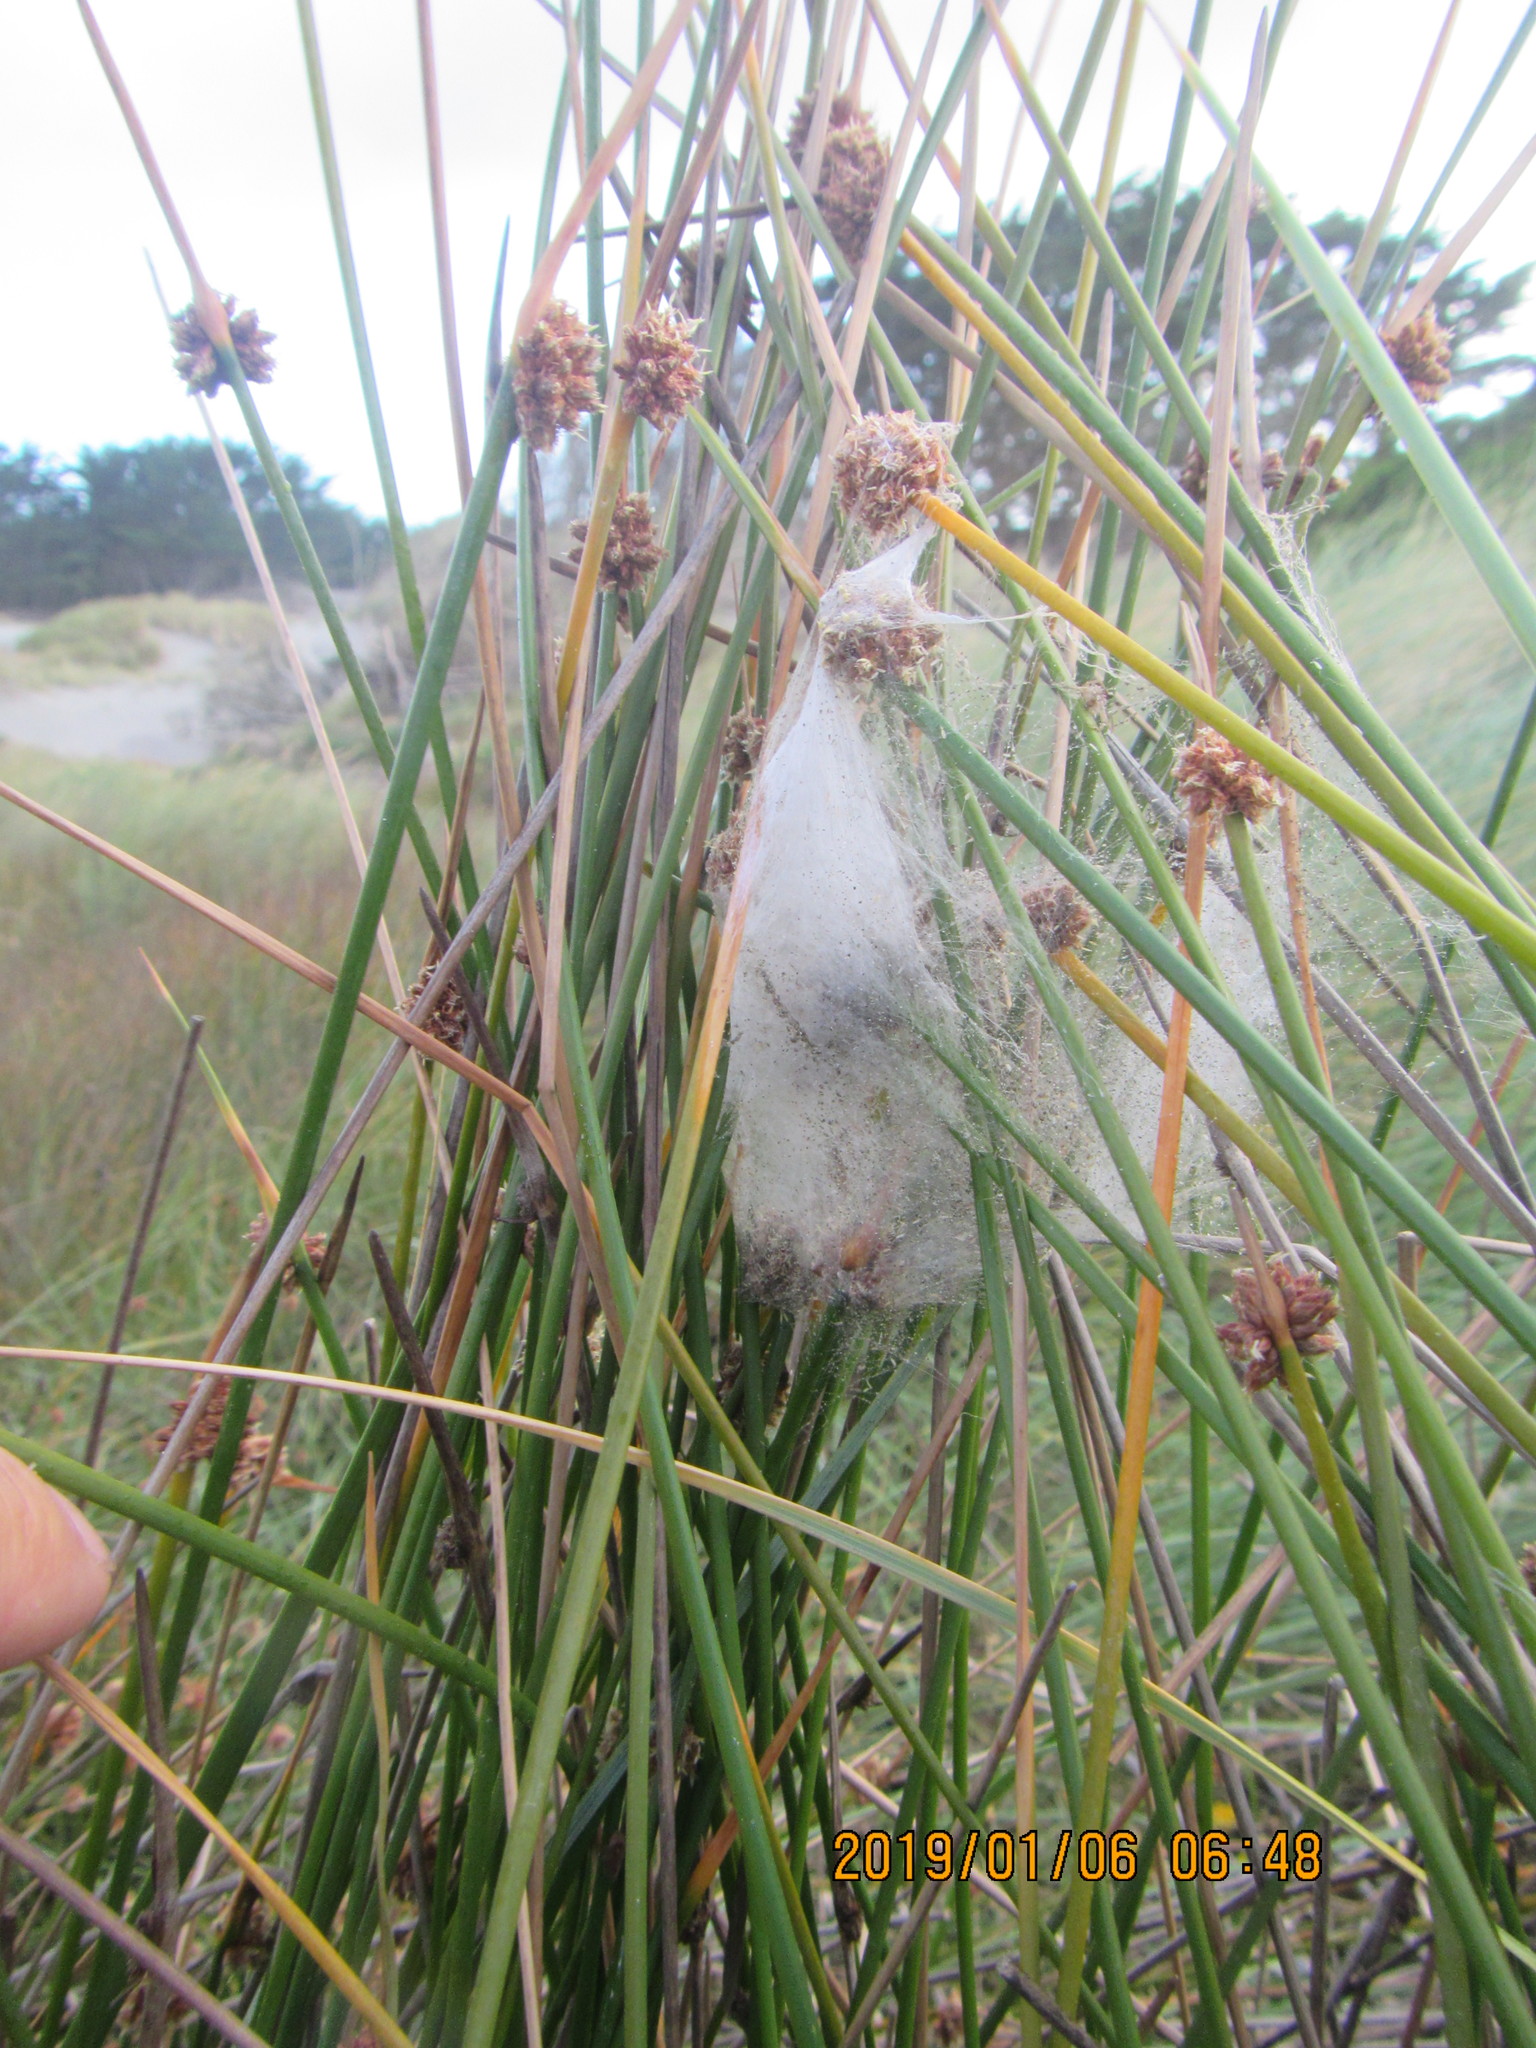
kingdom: Animalia
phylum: Arthropoda
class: Arachnida
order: Araneae
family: Pisauridae
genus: Dolomedes
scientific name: Dolomedes minor
